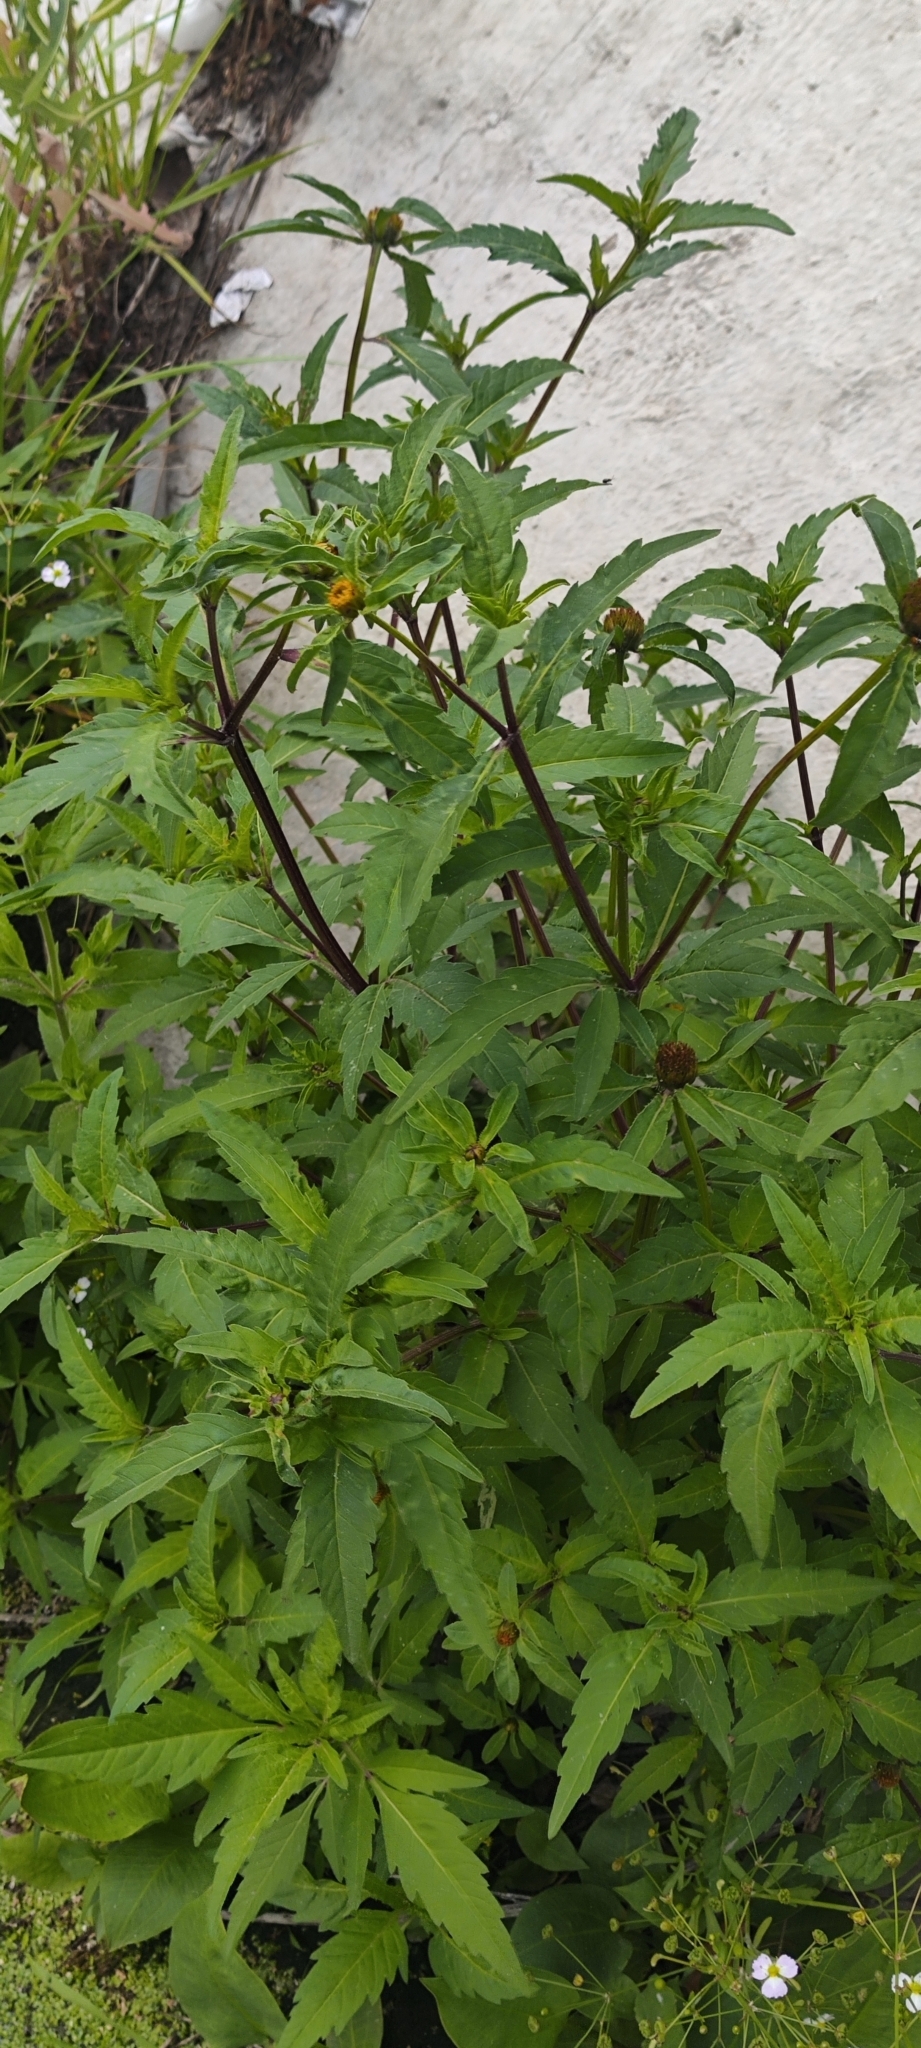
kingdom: Plantae
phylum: Tracheophyta
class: Magnoliopsida
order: Asterales
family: Asteraceae
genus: Bidens
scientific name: Bidens tripartita
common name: Trifid bur-marigold
